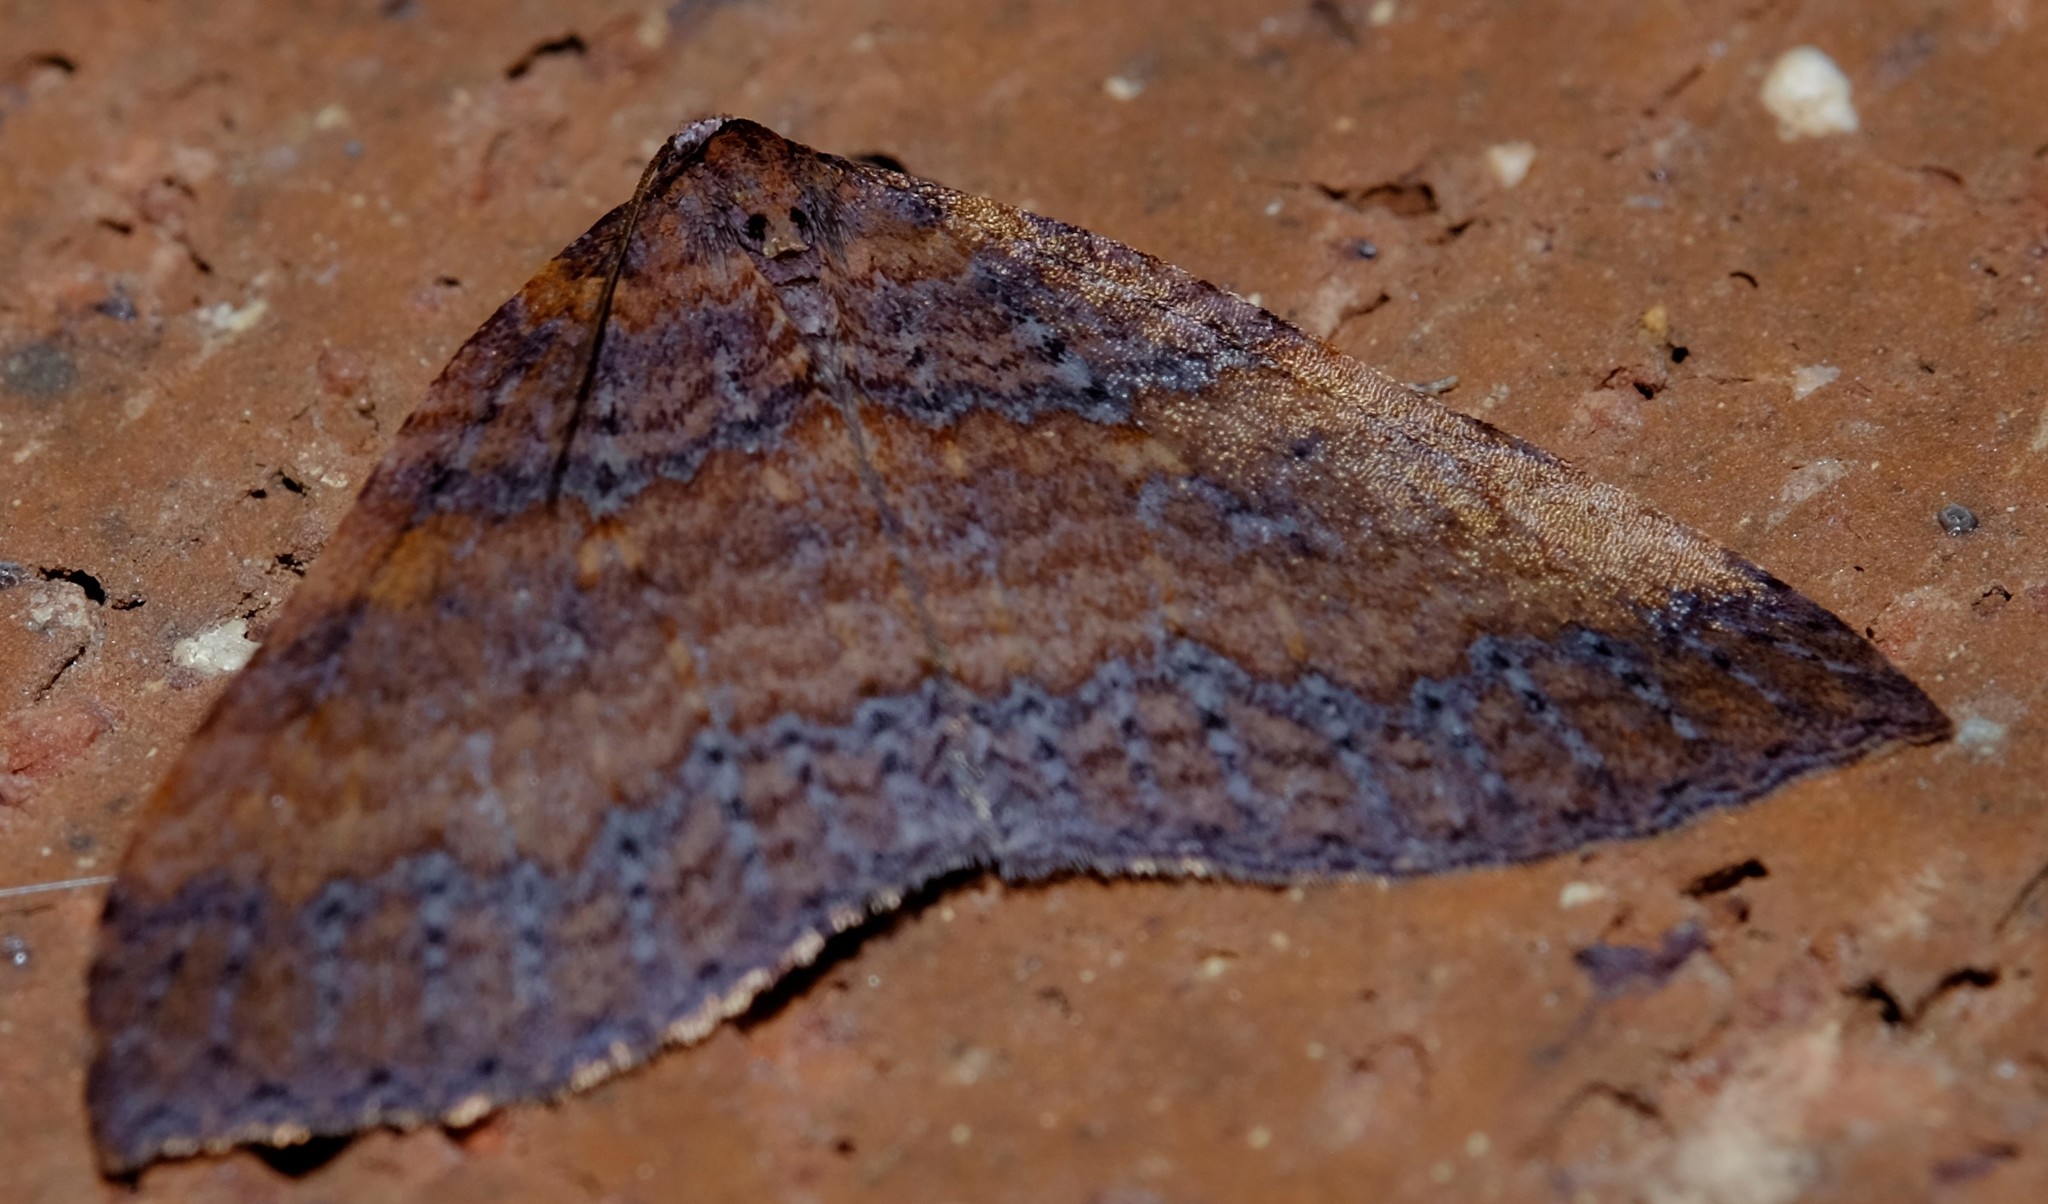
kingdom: Animalia
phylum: Arthropoda
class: Insecta
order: Lepidoptera
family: Geometridae
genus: Larentia
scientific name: Larentia apotoma
